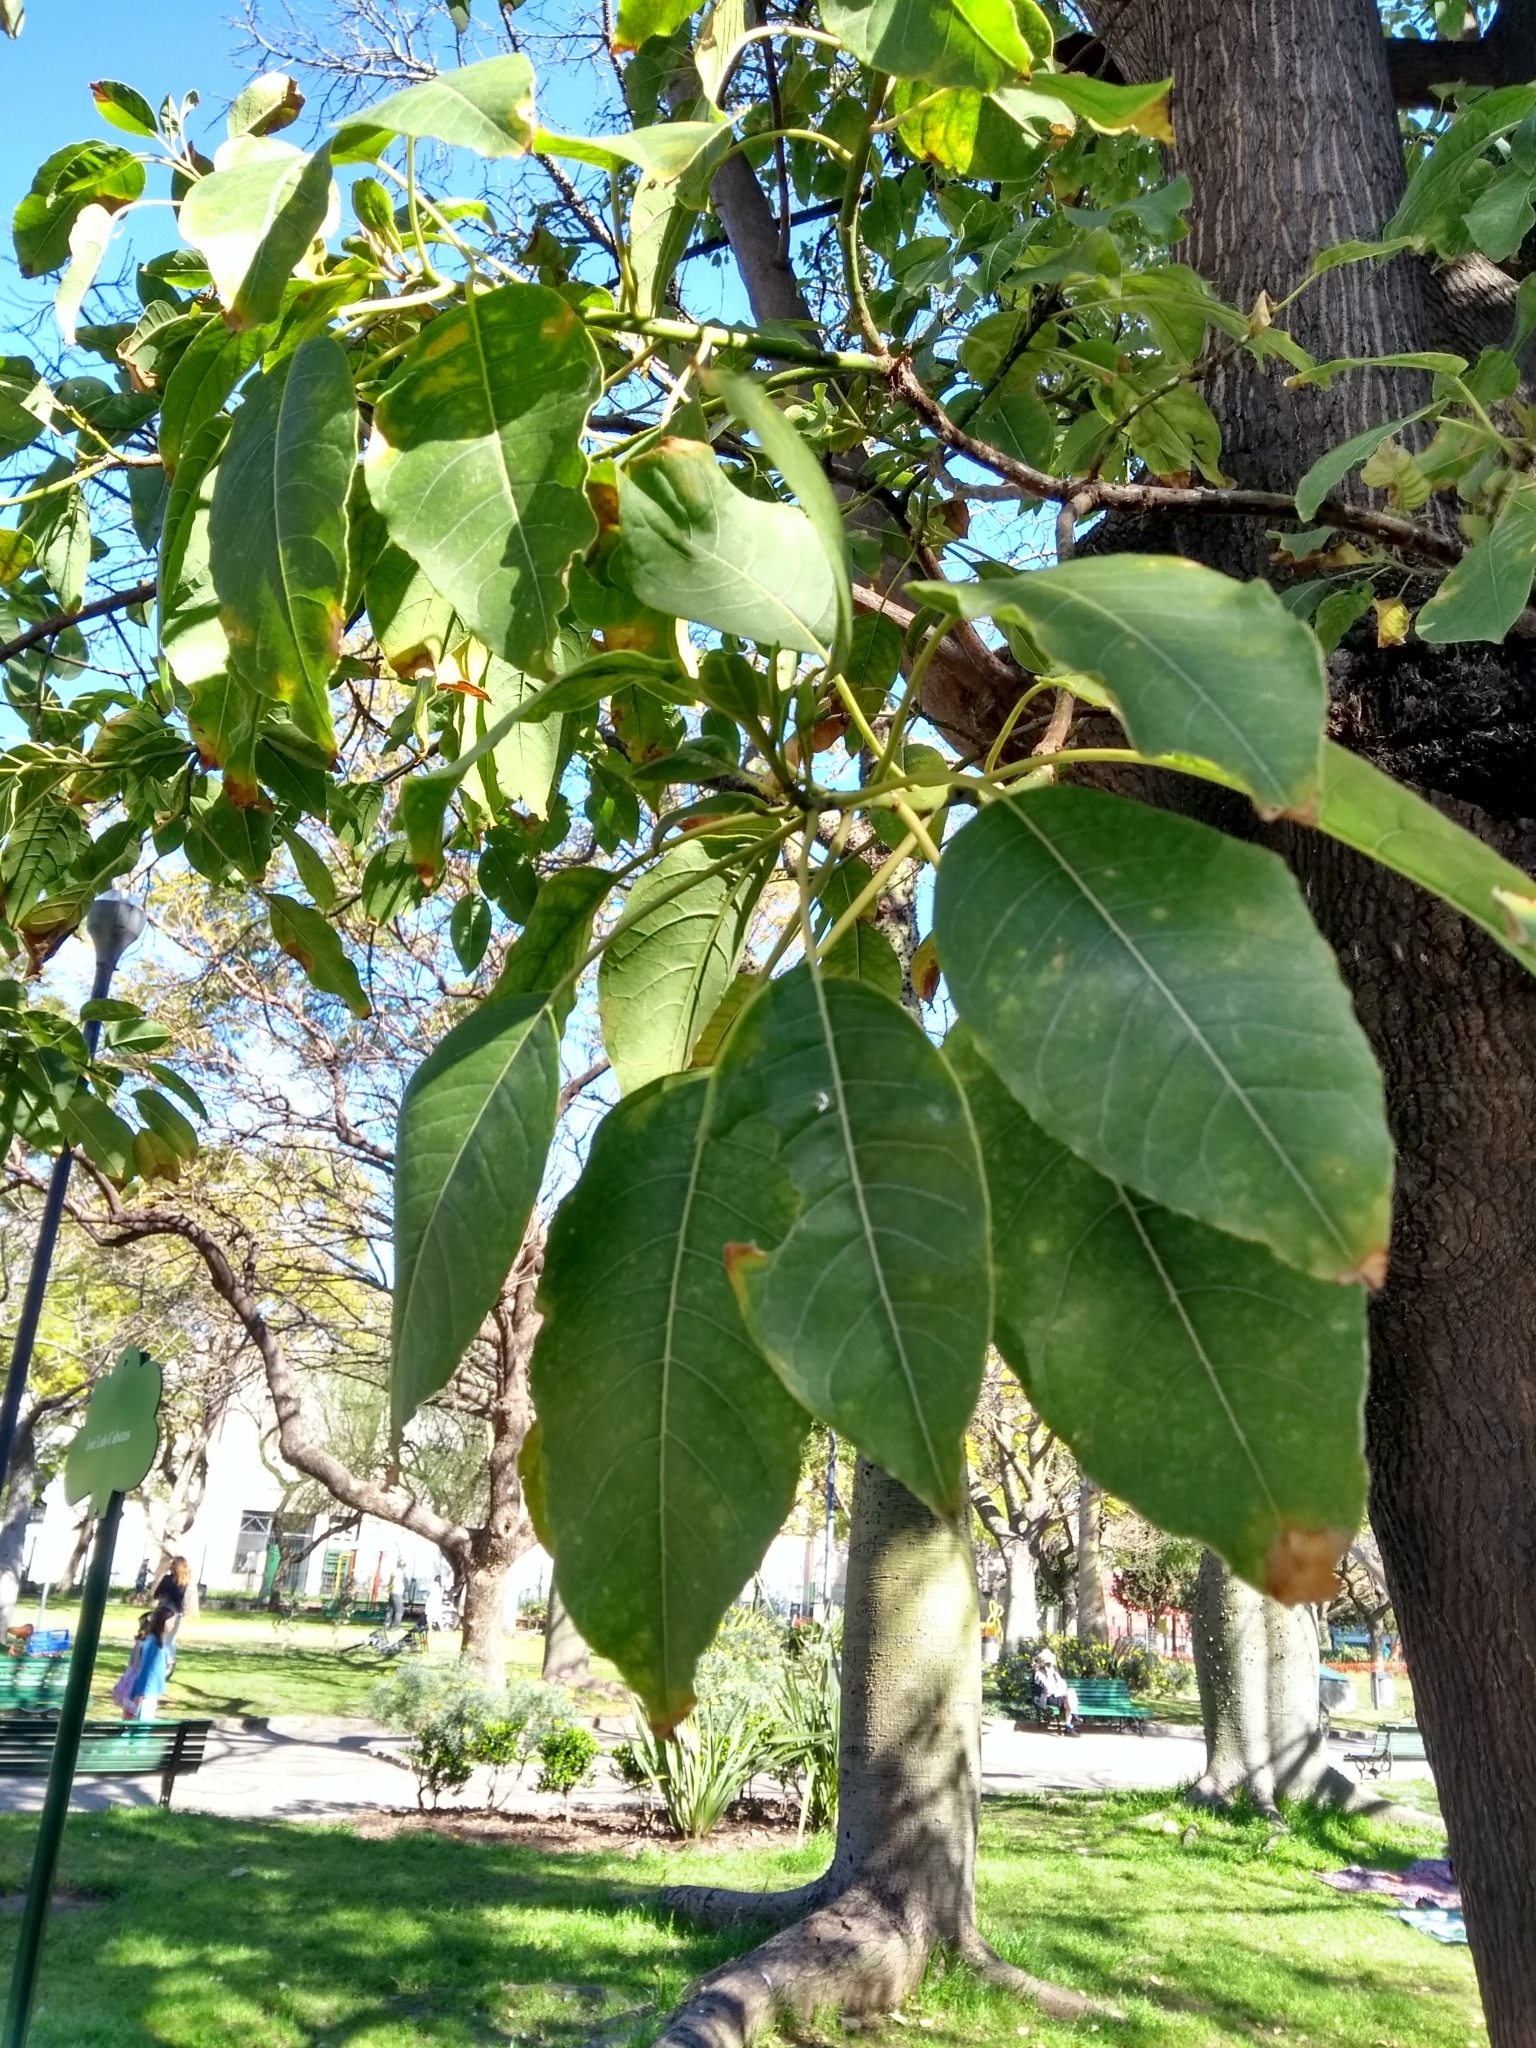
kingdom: Plantae
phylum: Tracheophyta
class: Magnoliopsida
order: Caryophyllales
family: Phytolaccaceae
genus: Phytolacca
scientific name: Phytolacca dioica
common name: Pokeweed
